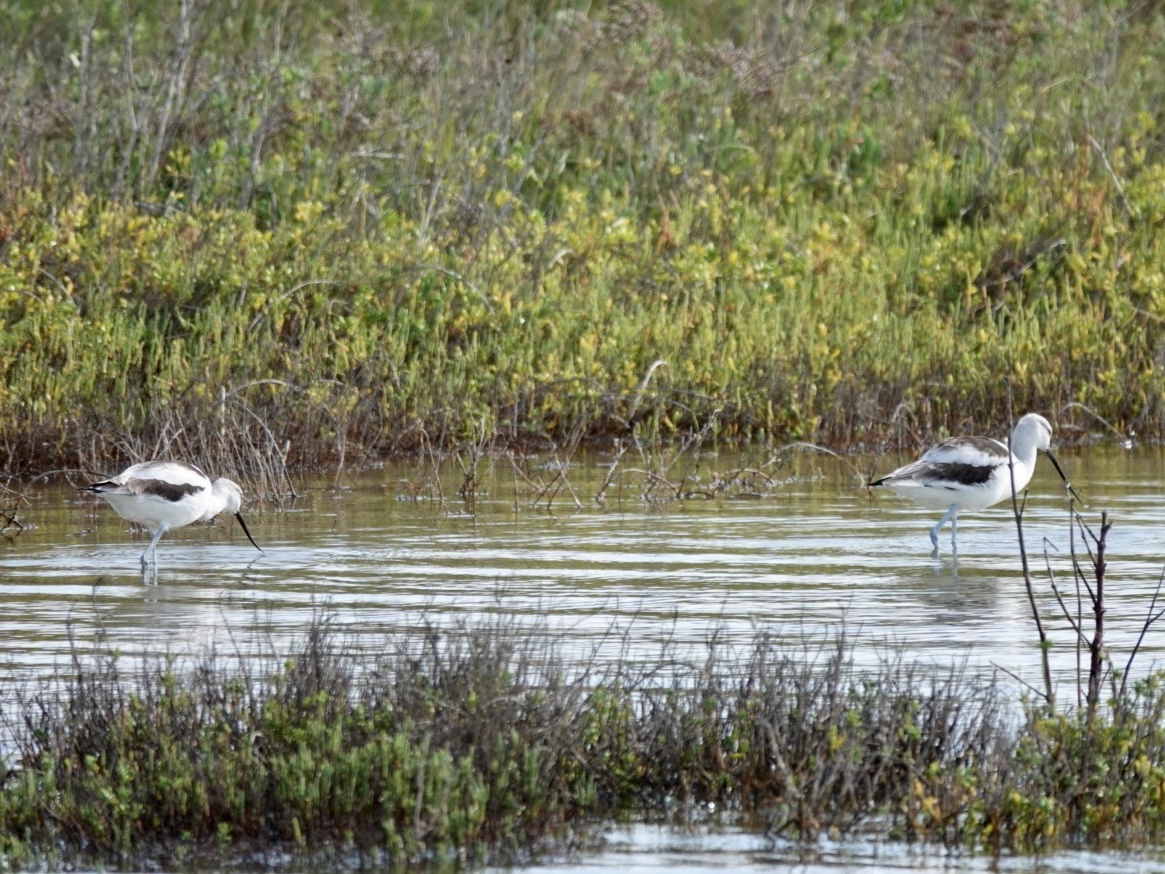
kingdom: Animalia
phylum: Chordata
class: Aves
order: Charadriiformes
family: Recurvirostridae
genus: Recurvirostra
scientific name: Recurvirostra americana
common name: American avocet
